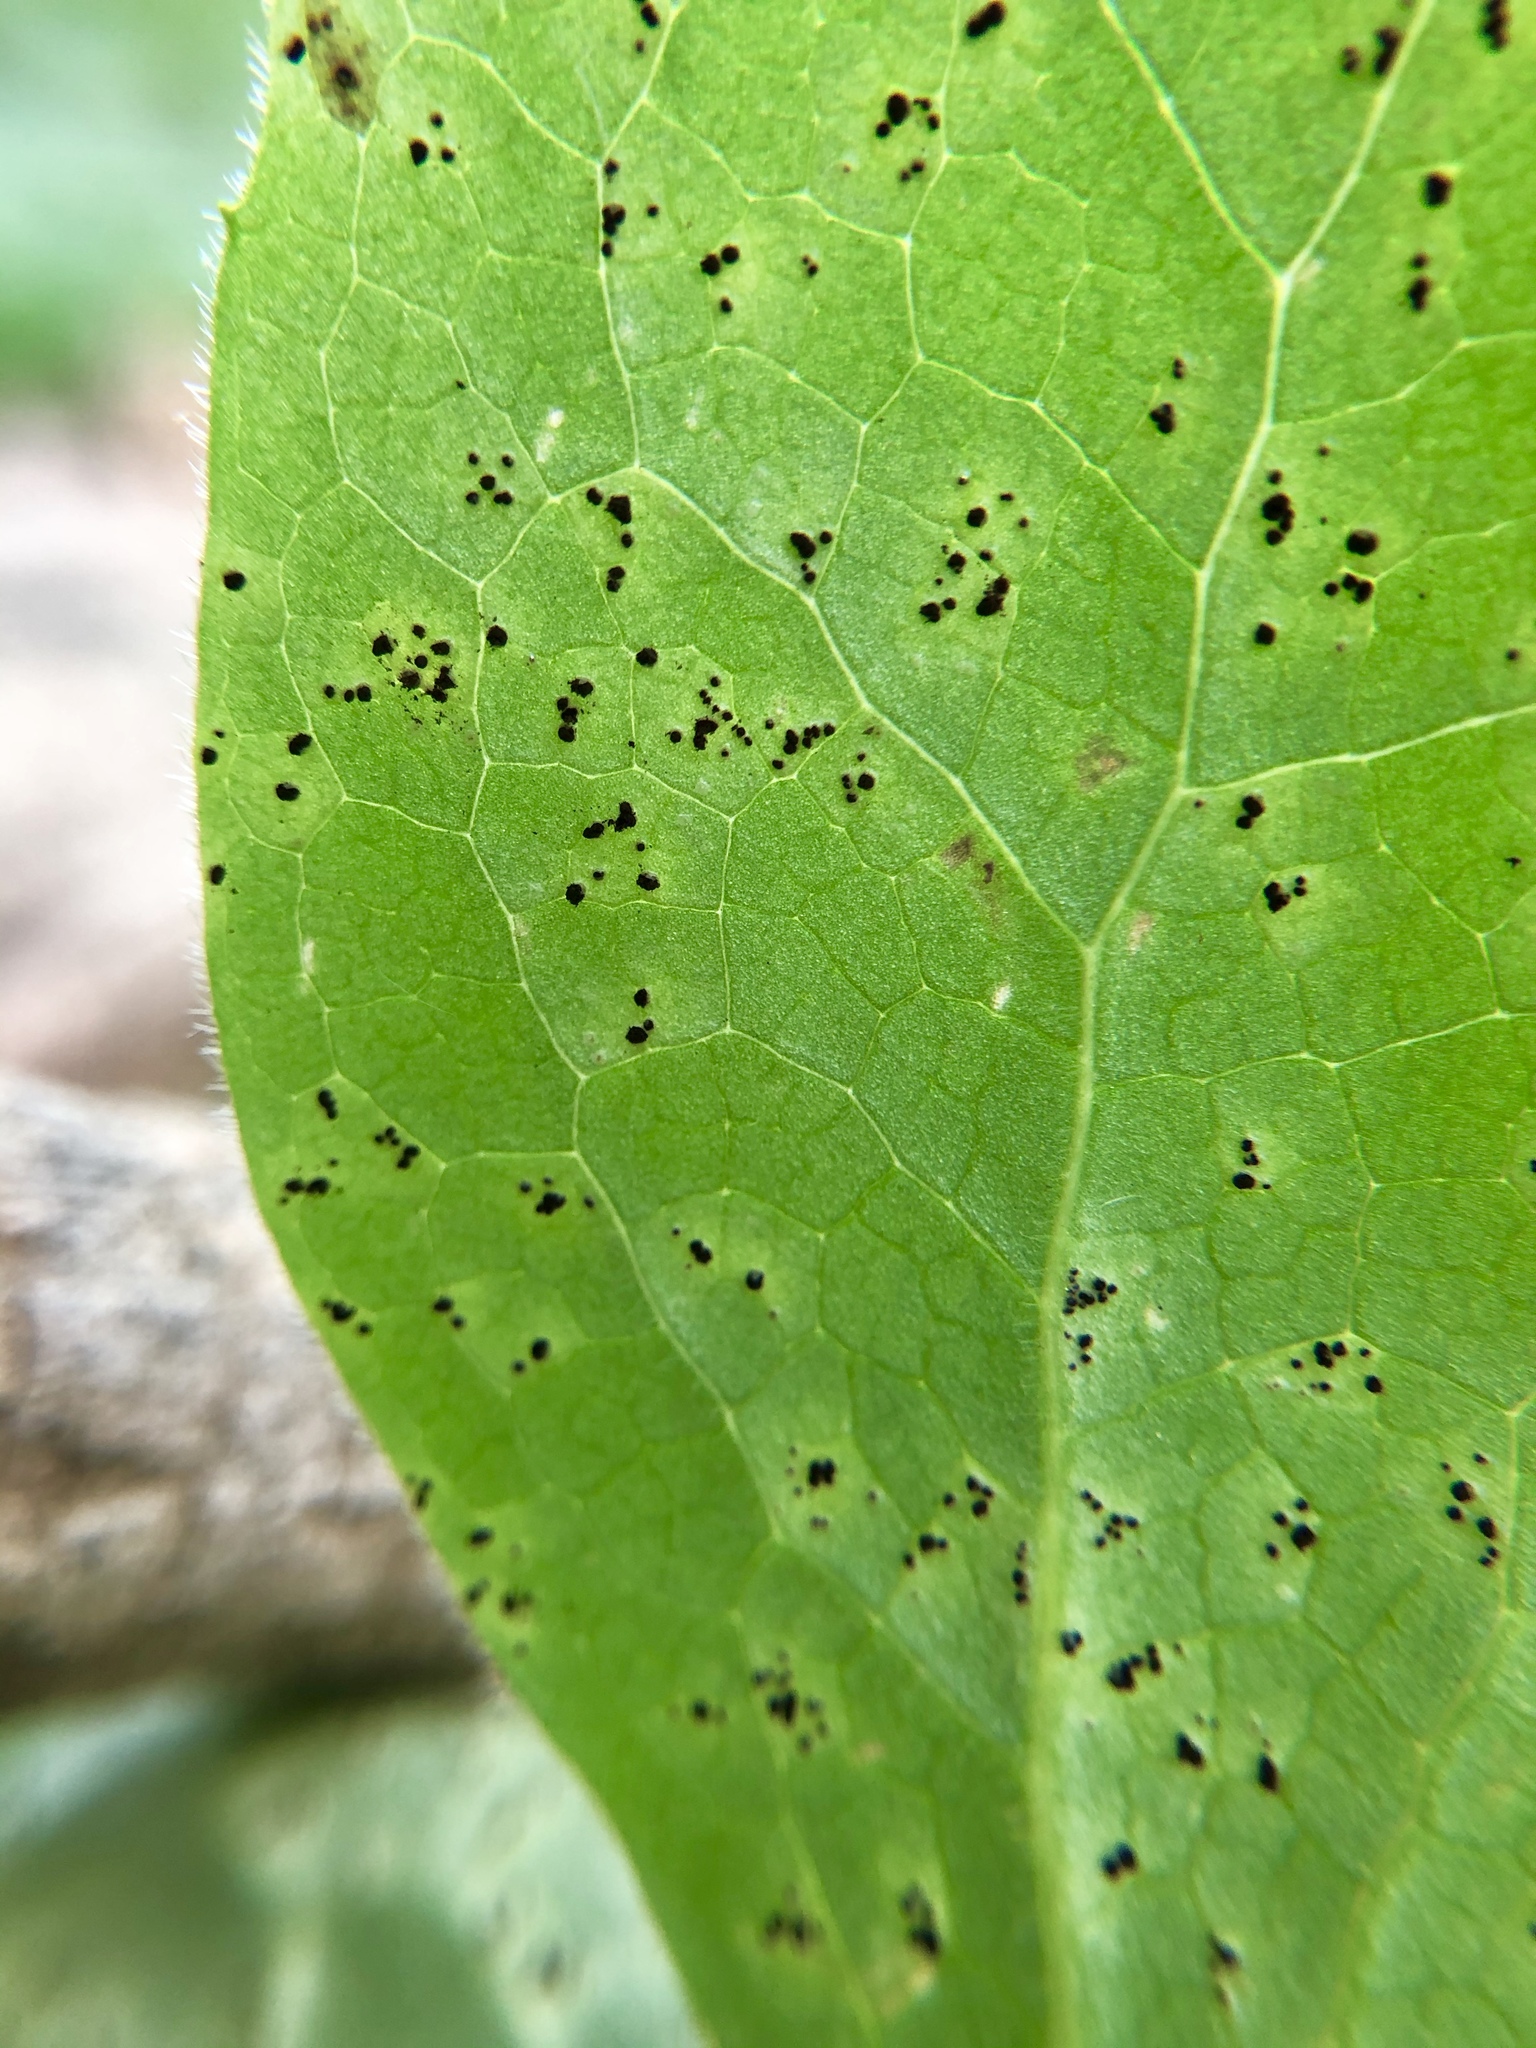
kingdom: Fungi
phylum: Basidiomycota
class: Pucciniomycetes
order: Pucciniales
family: Pucciniaceae
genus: Puccinia
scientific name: Puccinia podophylli
